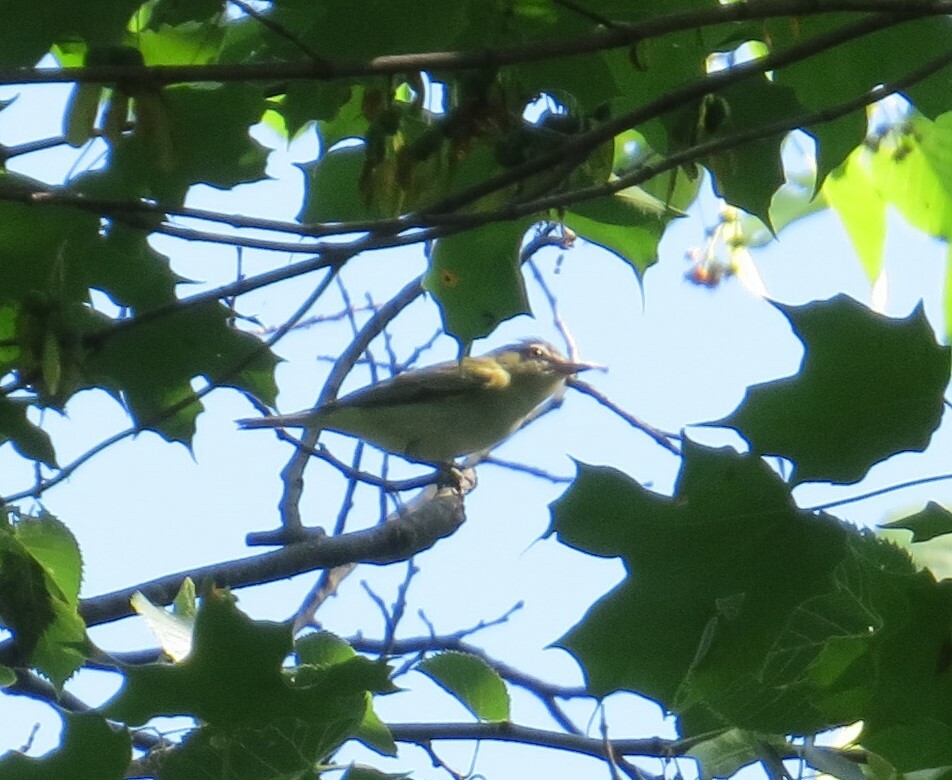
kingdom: Animalia
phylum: Chordata
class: Aves
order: Passeriformes
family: Vireonidae
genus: Vireo
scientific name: Vireo olivaceus
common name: Red-eyed vireo
